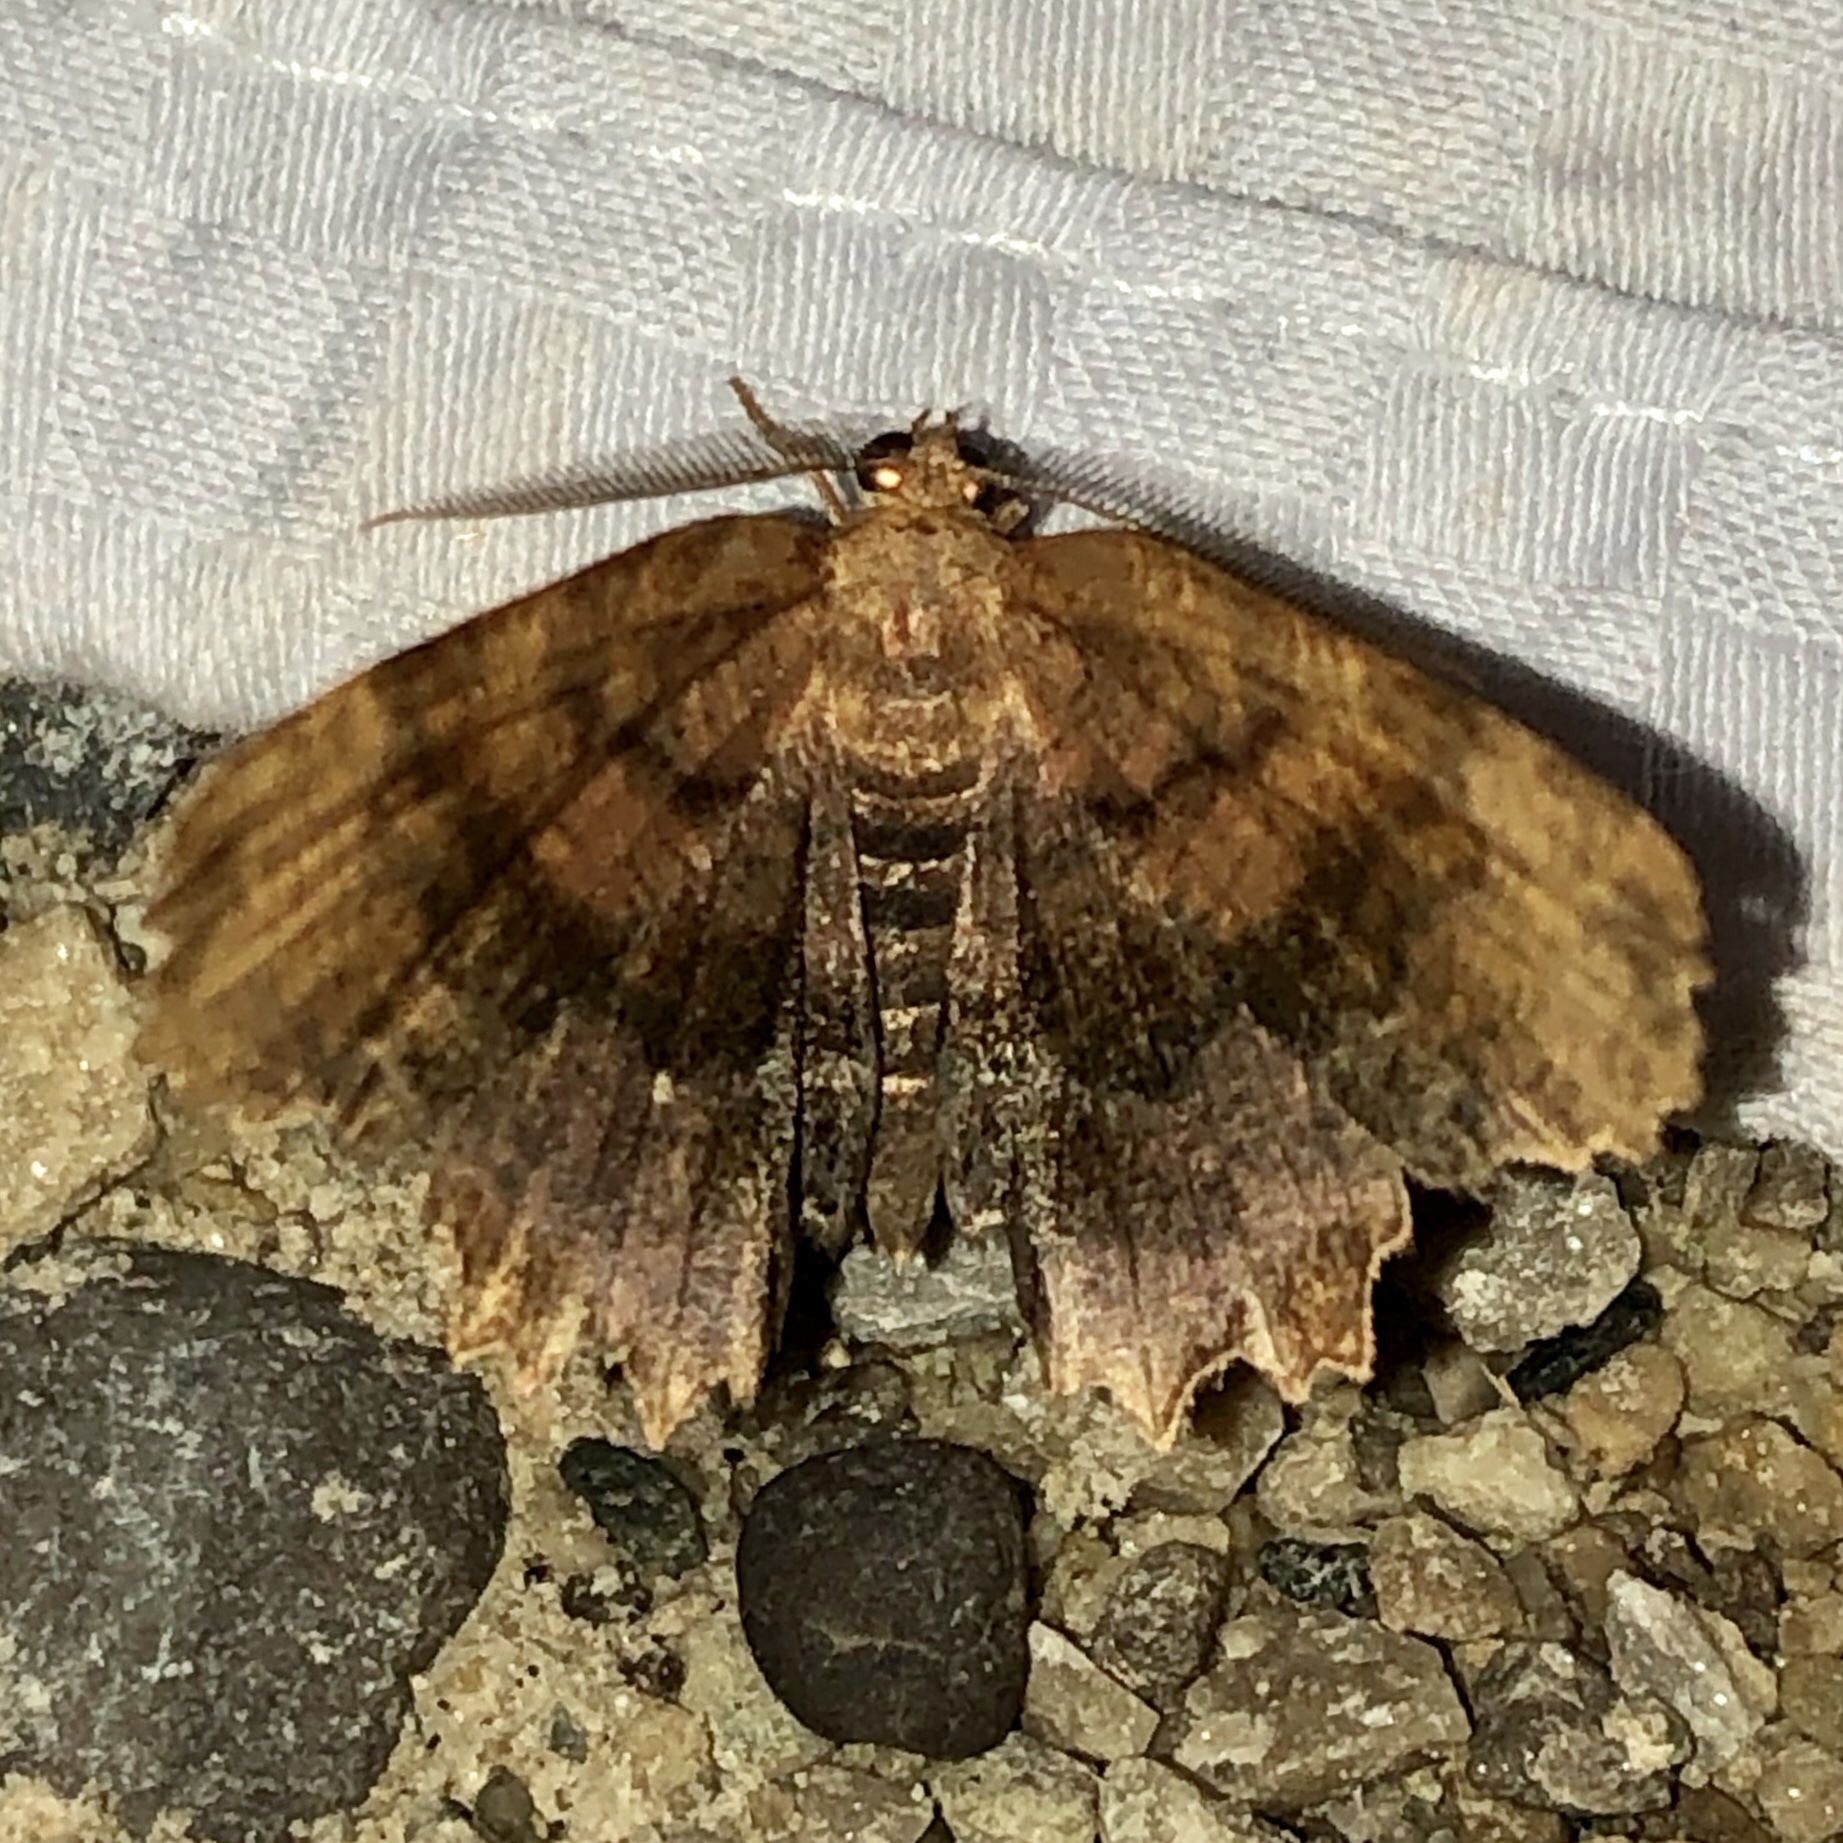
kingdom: Animalia
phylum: Arthropoda
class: Insecta
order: Lepidoptera
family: Geometridae
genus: Cepphis
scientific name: Cepphis armataria
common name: Scallop moth
